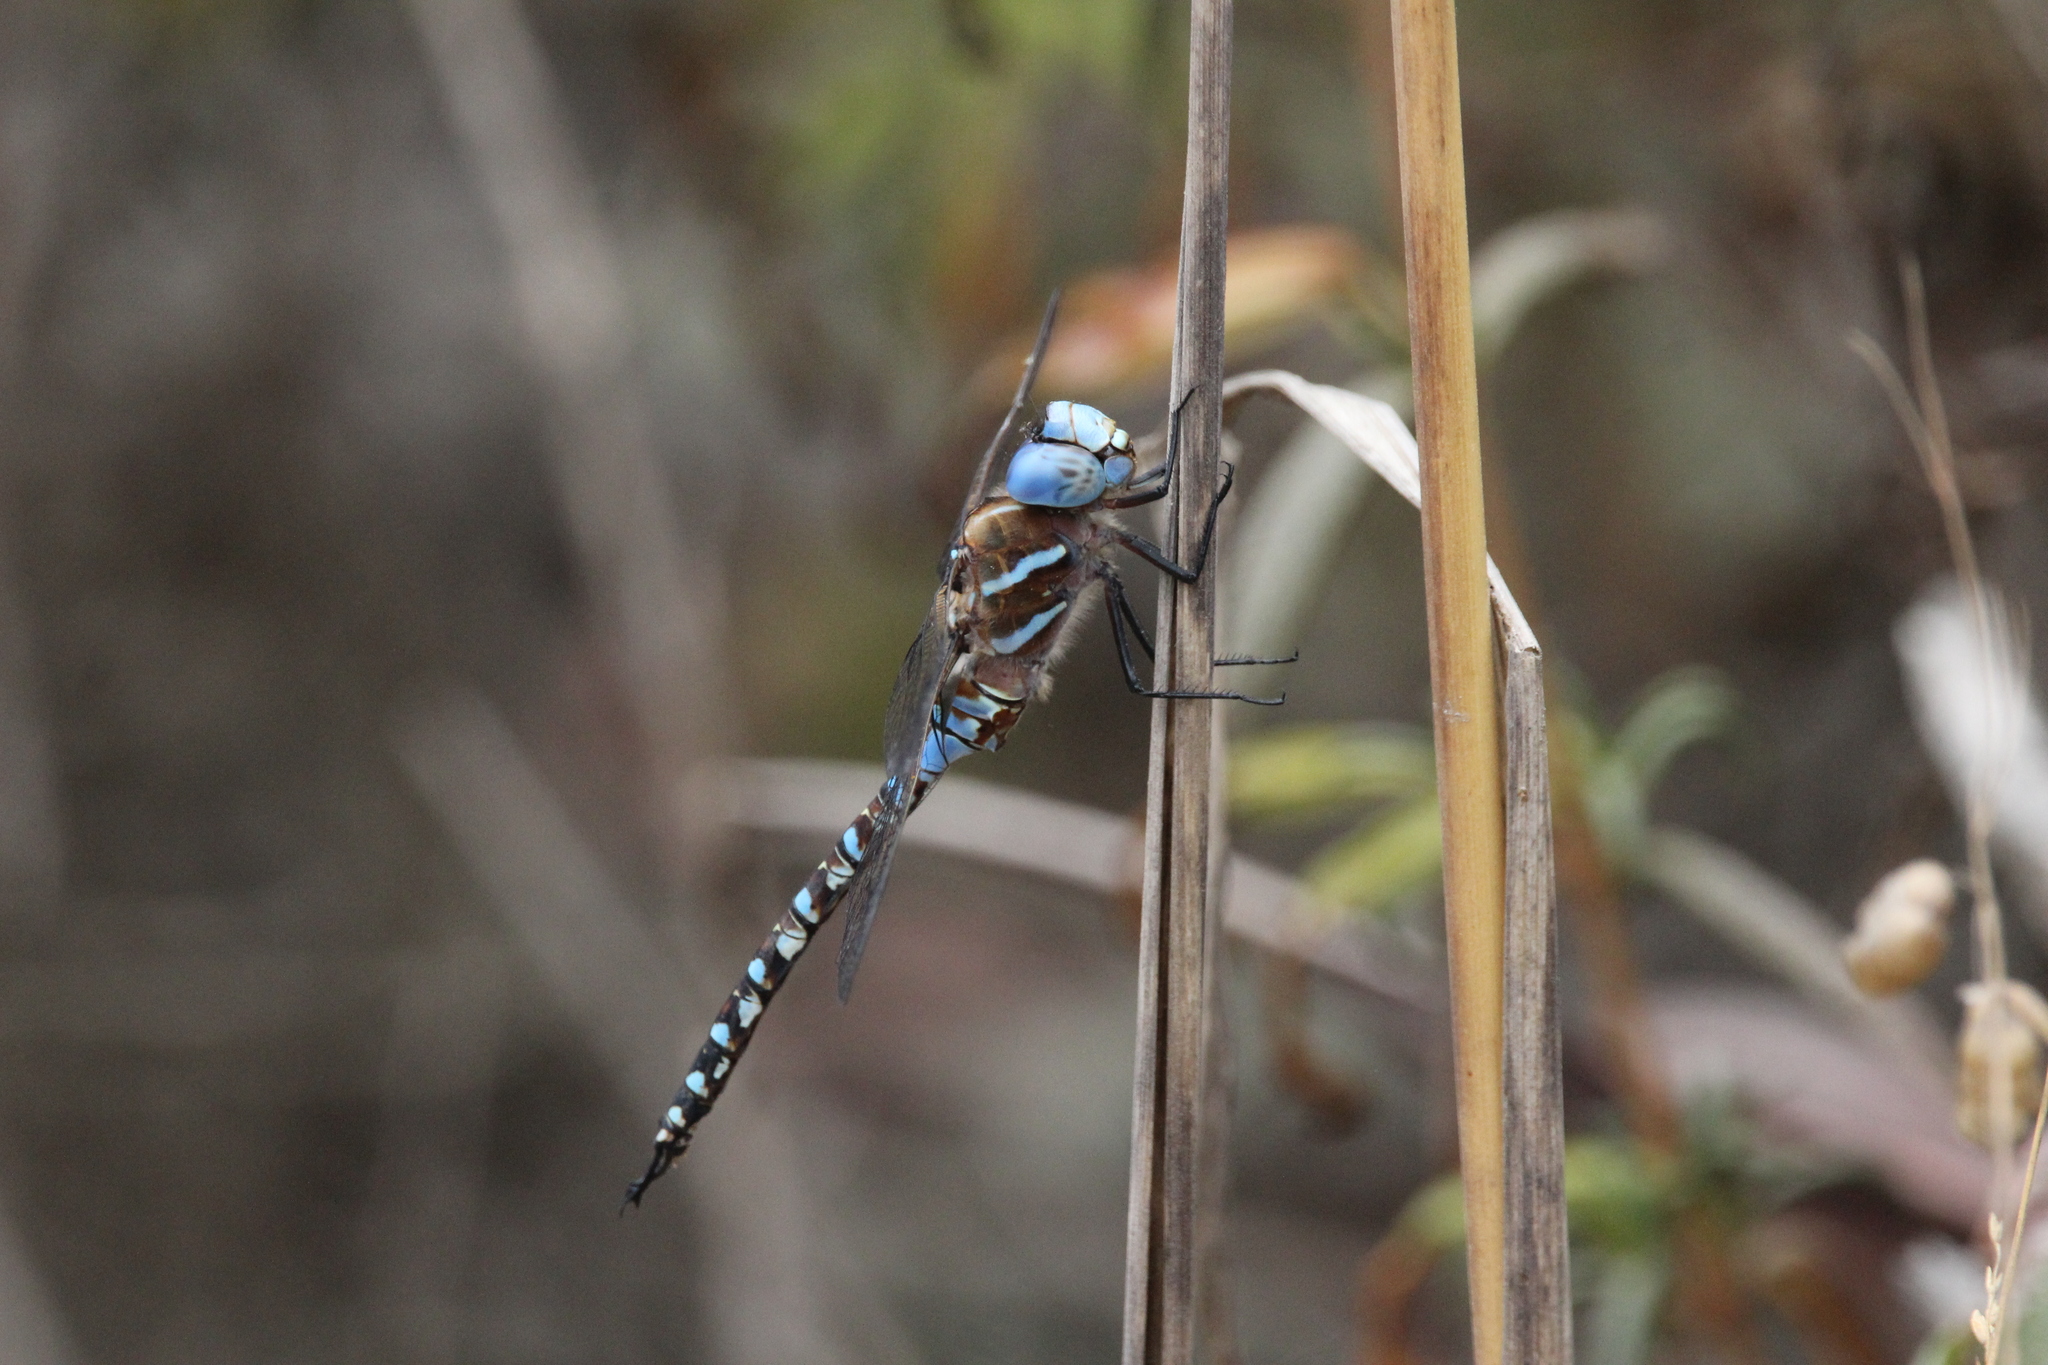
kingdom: Animalia
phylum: Arthropoda
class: Insecta
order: Odonata
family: Aeshnidae
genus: Rhionaeschna
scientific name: Rhionaeschna multicolor
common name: Blue-eyed darner
